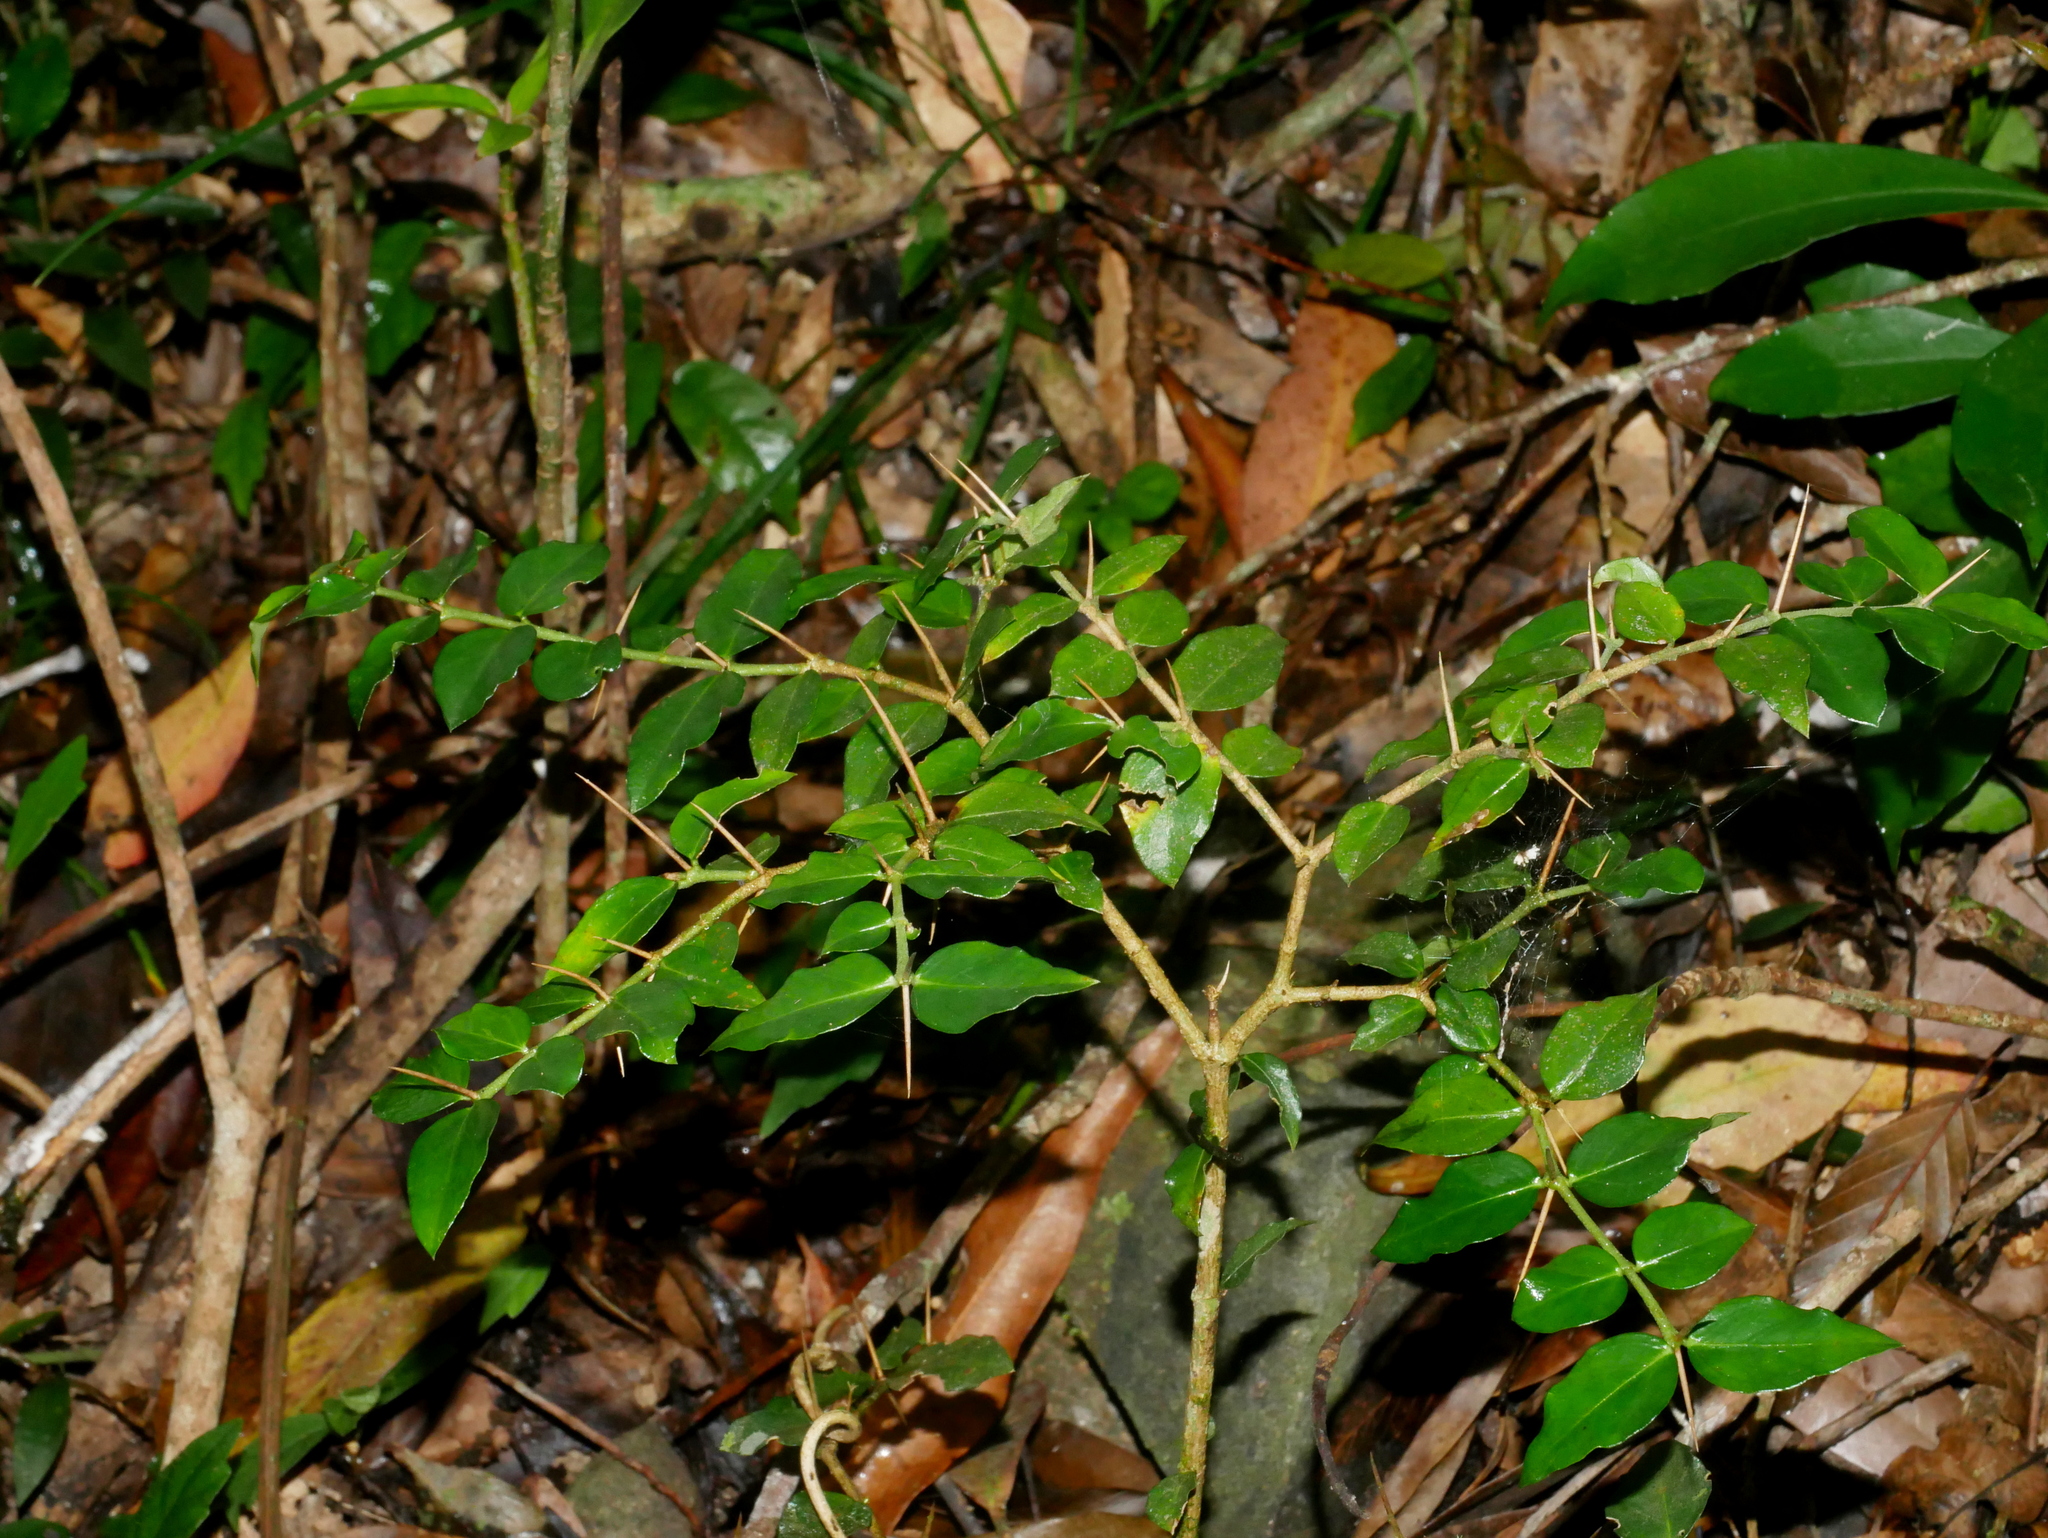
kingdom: Plantae
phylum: Tracheophyta
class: Magnoliopsida
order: Gentianales
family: Rubiaceae
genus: Damnacanthus
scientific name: Damnacanthus indicus
